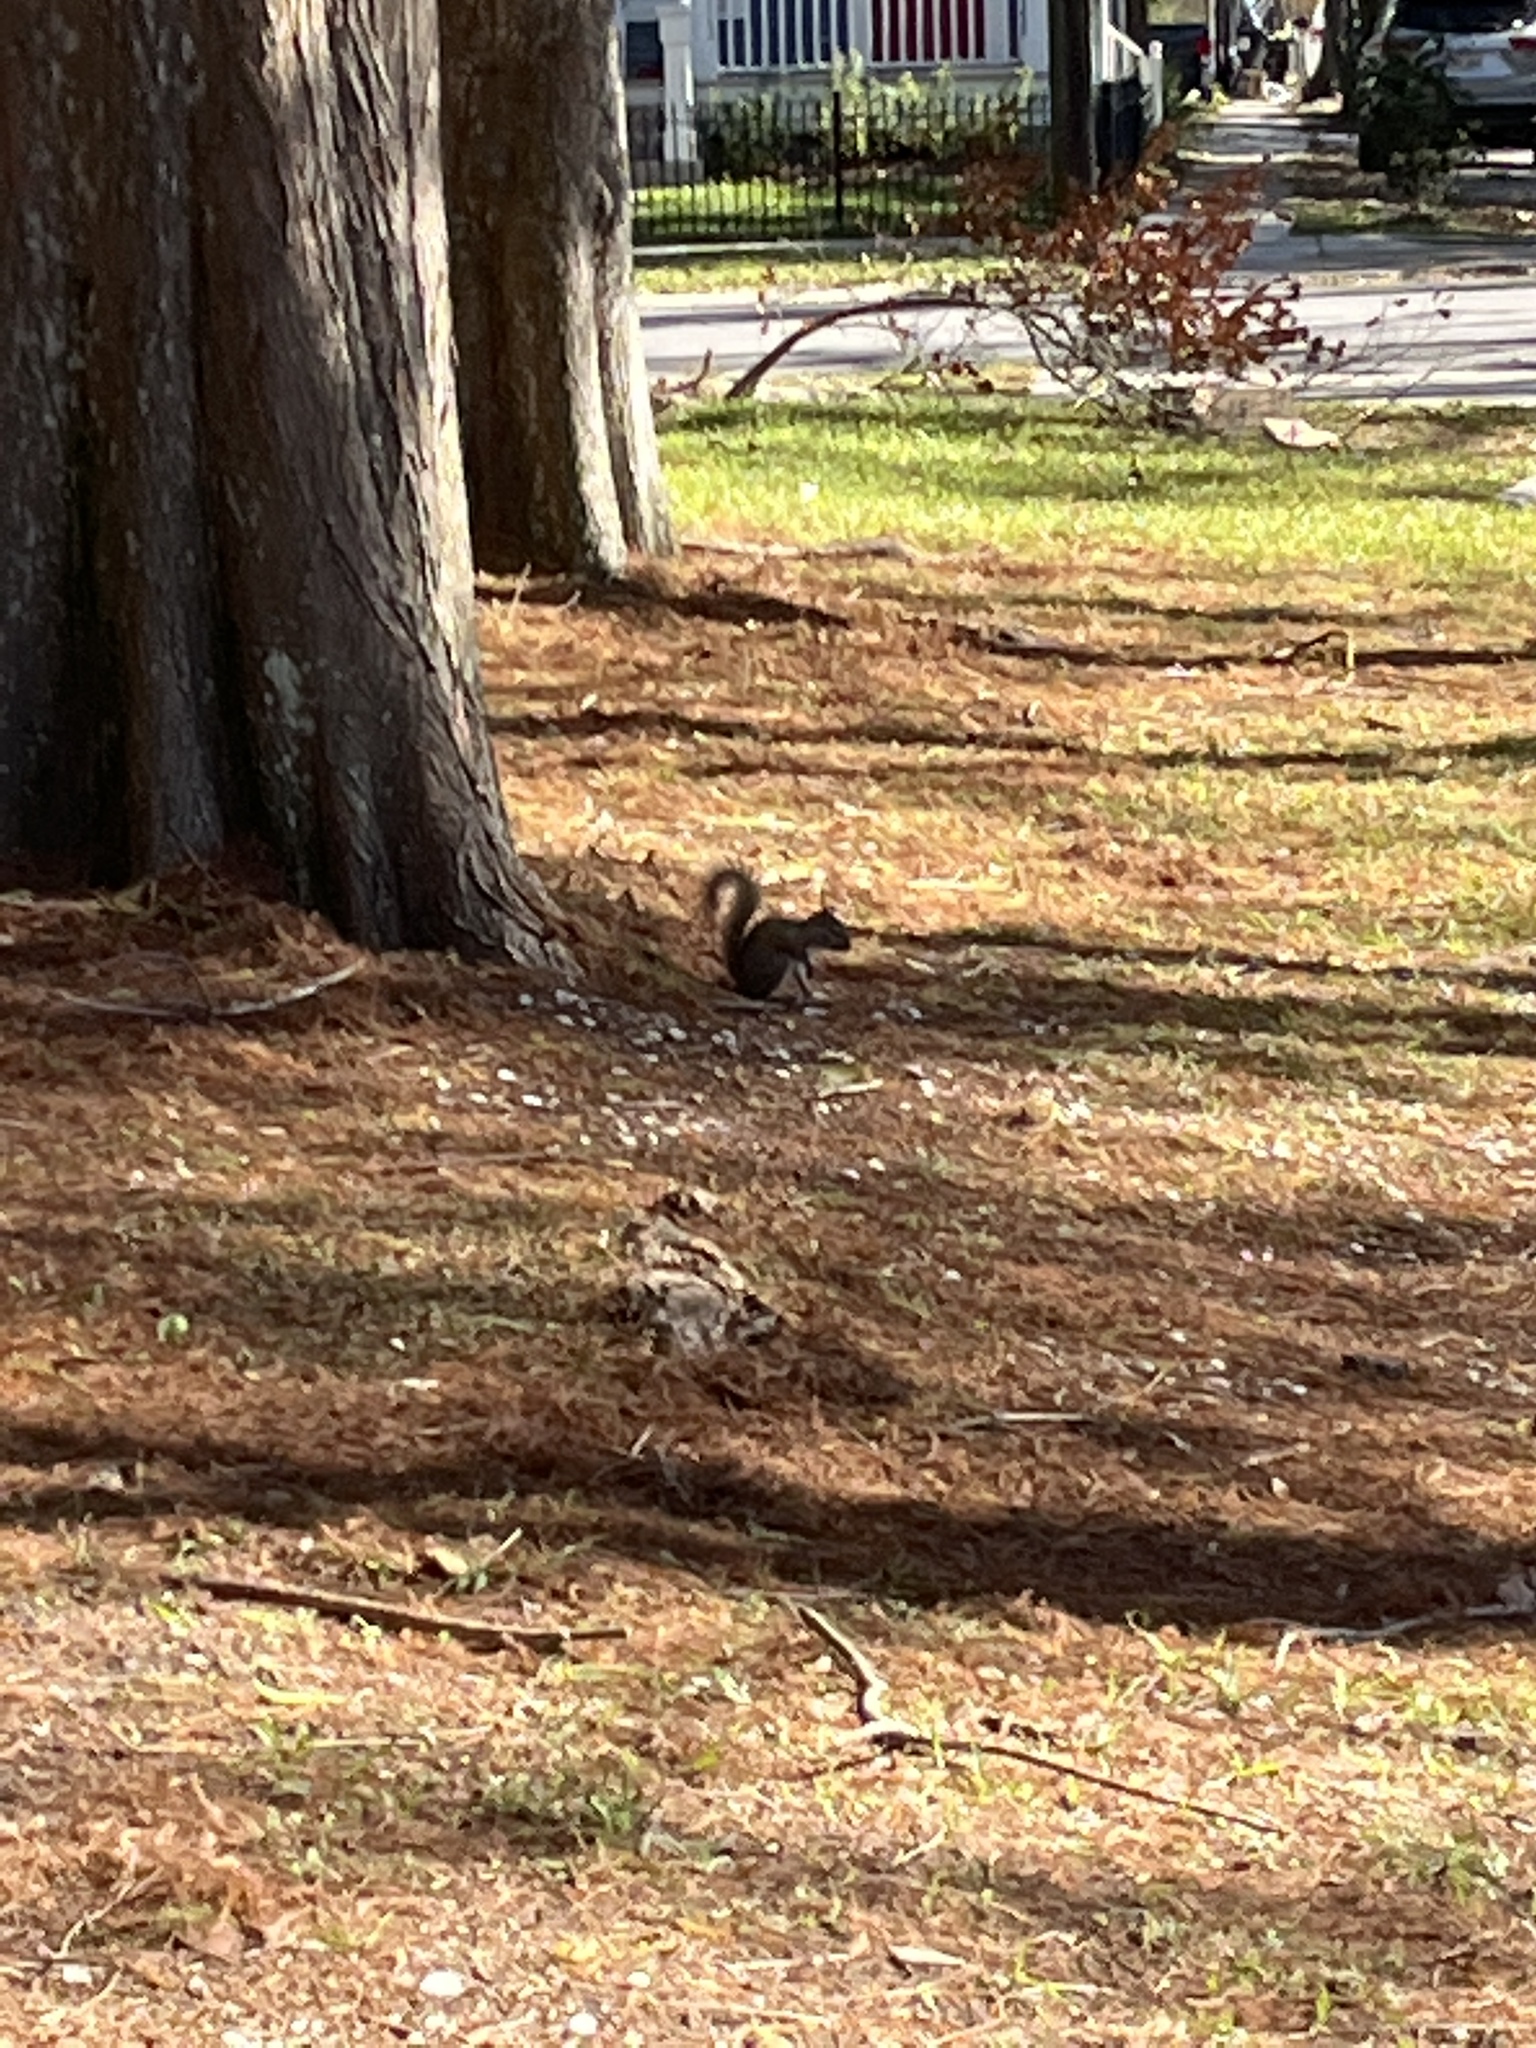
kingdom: Animalia
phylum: Chordata
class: Mammalia
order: Rodentia
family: Sciuridae
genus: Sciurus
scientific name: Sciurus carolinensis
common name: Eastern gray squirrel
